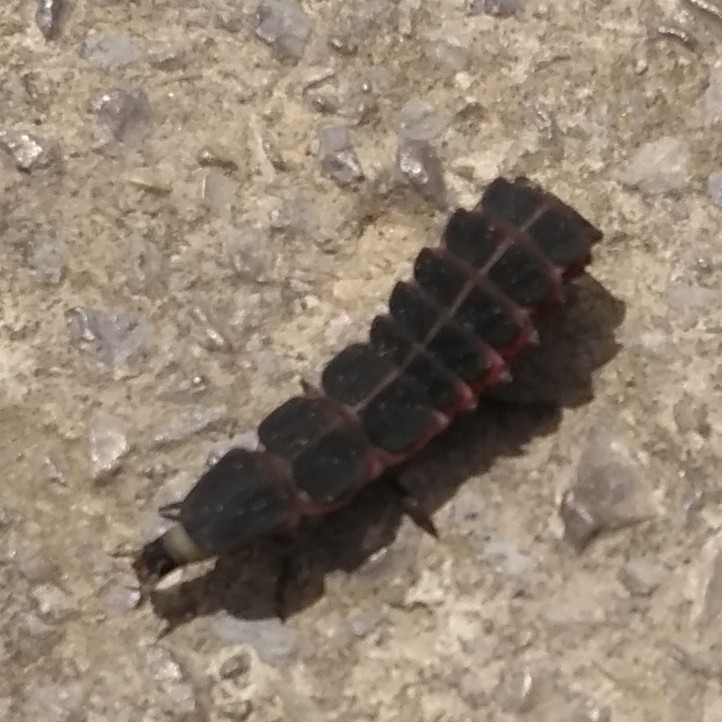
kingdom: Animalia
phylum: Arthropoda
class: Insecta
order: Coleoptera
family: Lampyridae
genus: Nyctophila
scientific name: Nyctophila reichii
